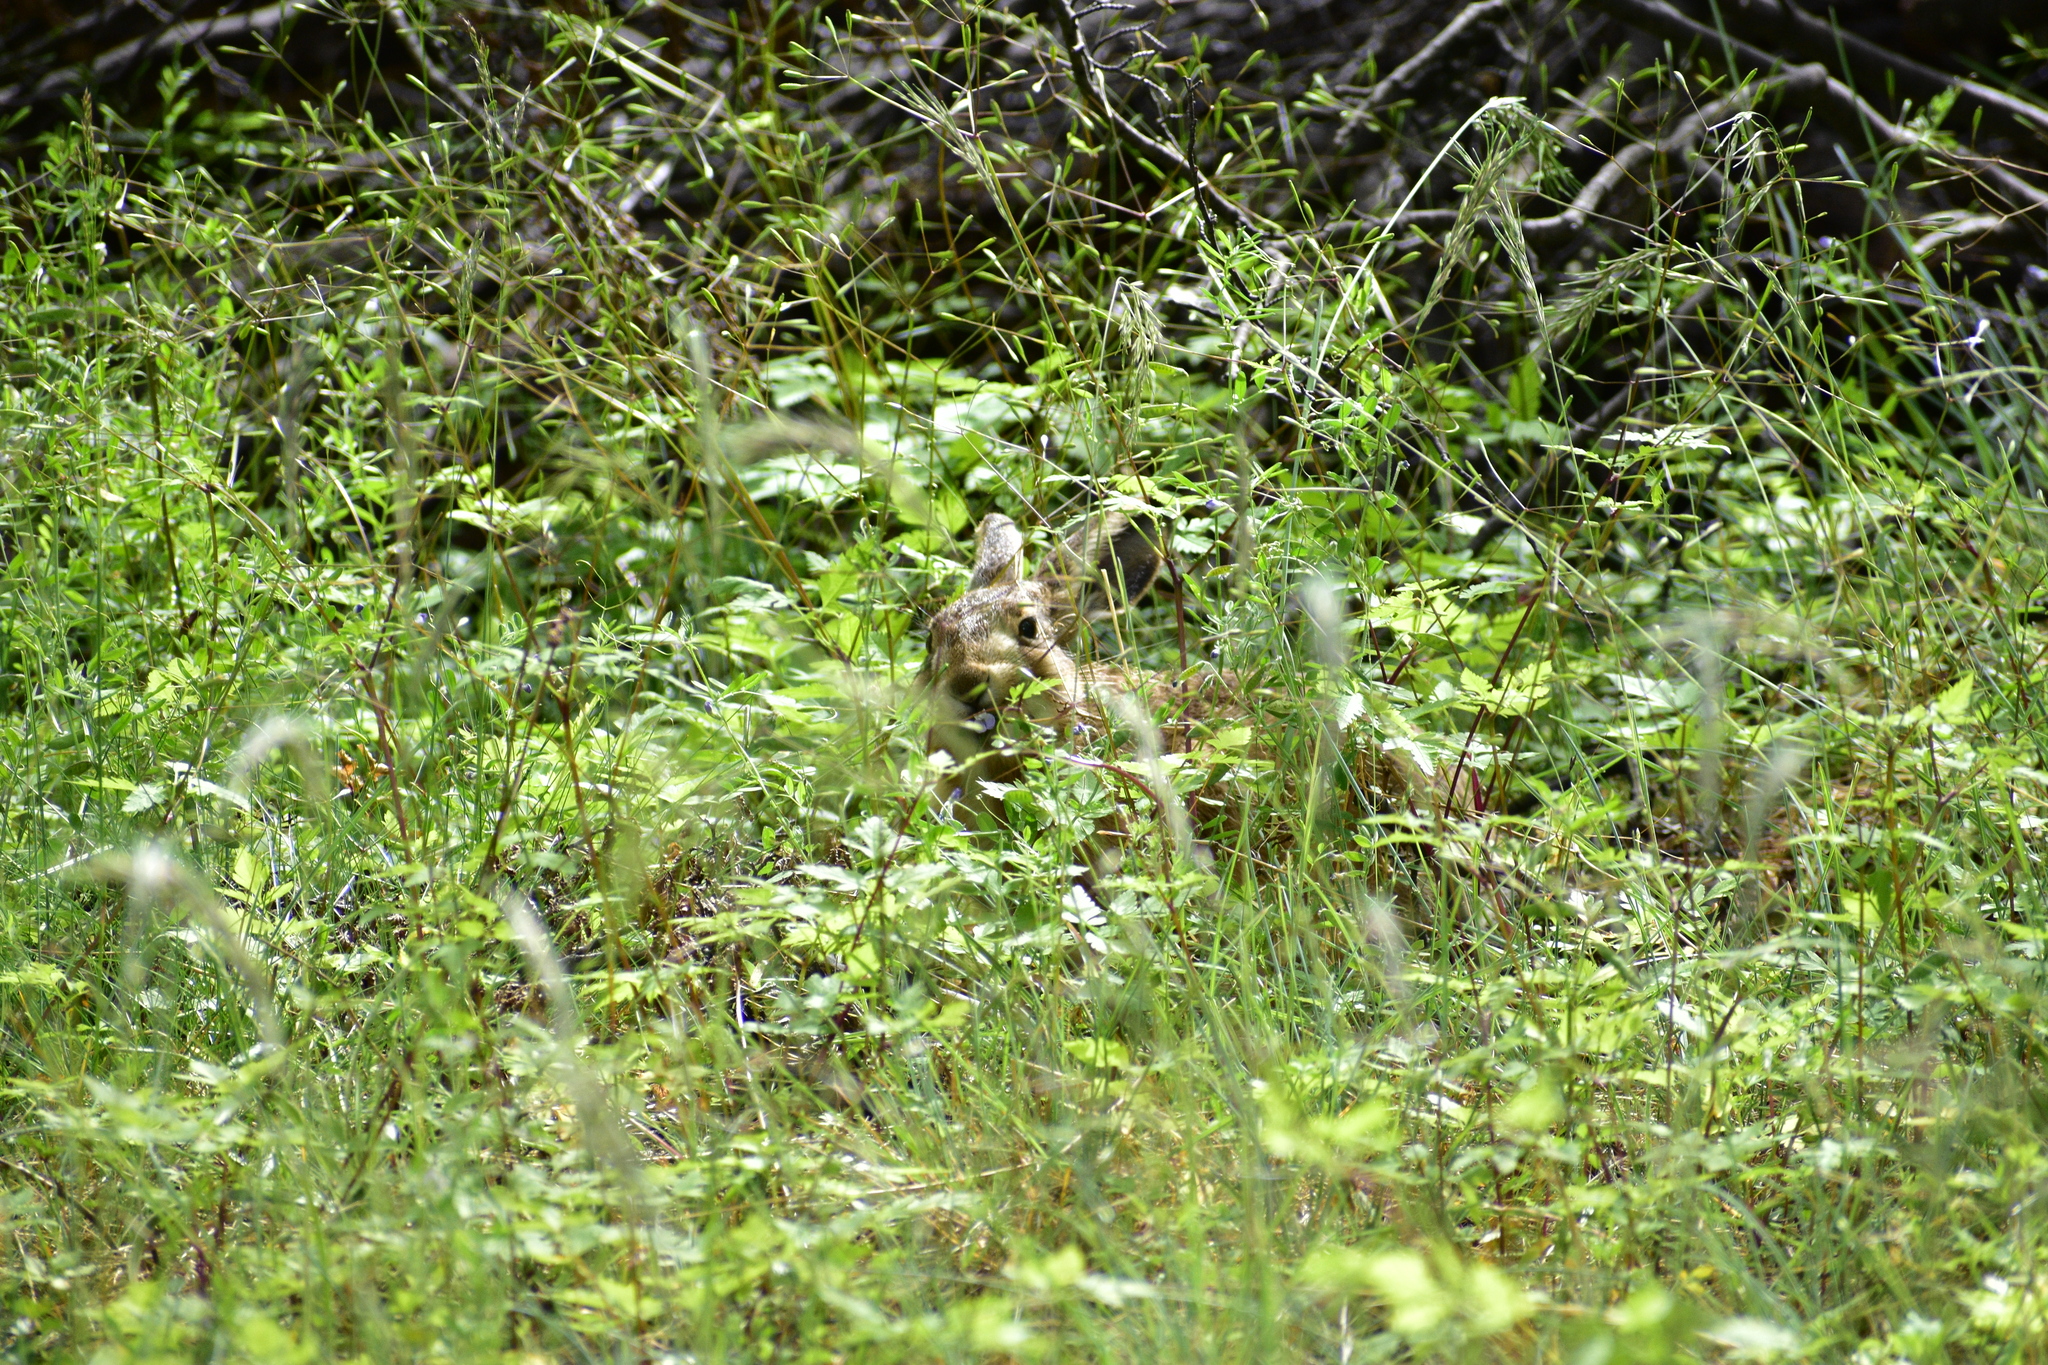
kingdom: Animalia
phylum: Chordata
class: Mammalia
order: Lagomorpha
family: Leporidae
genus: Lepus
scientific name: Lepus europaeus
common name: European hare
